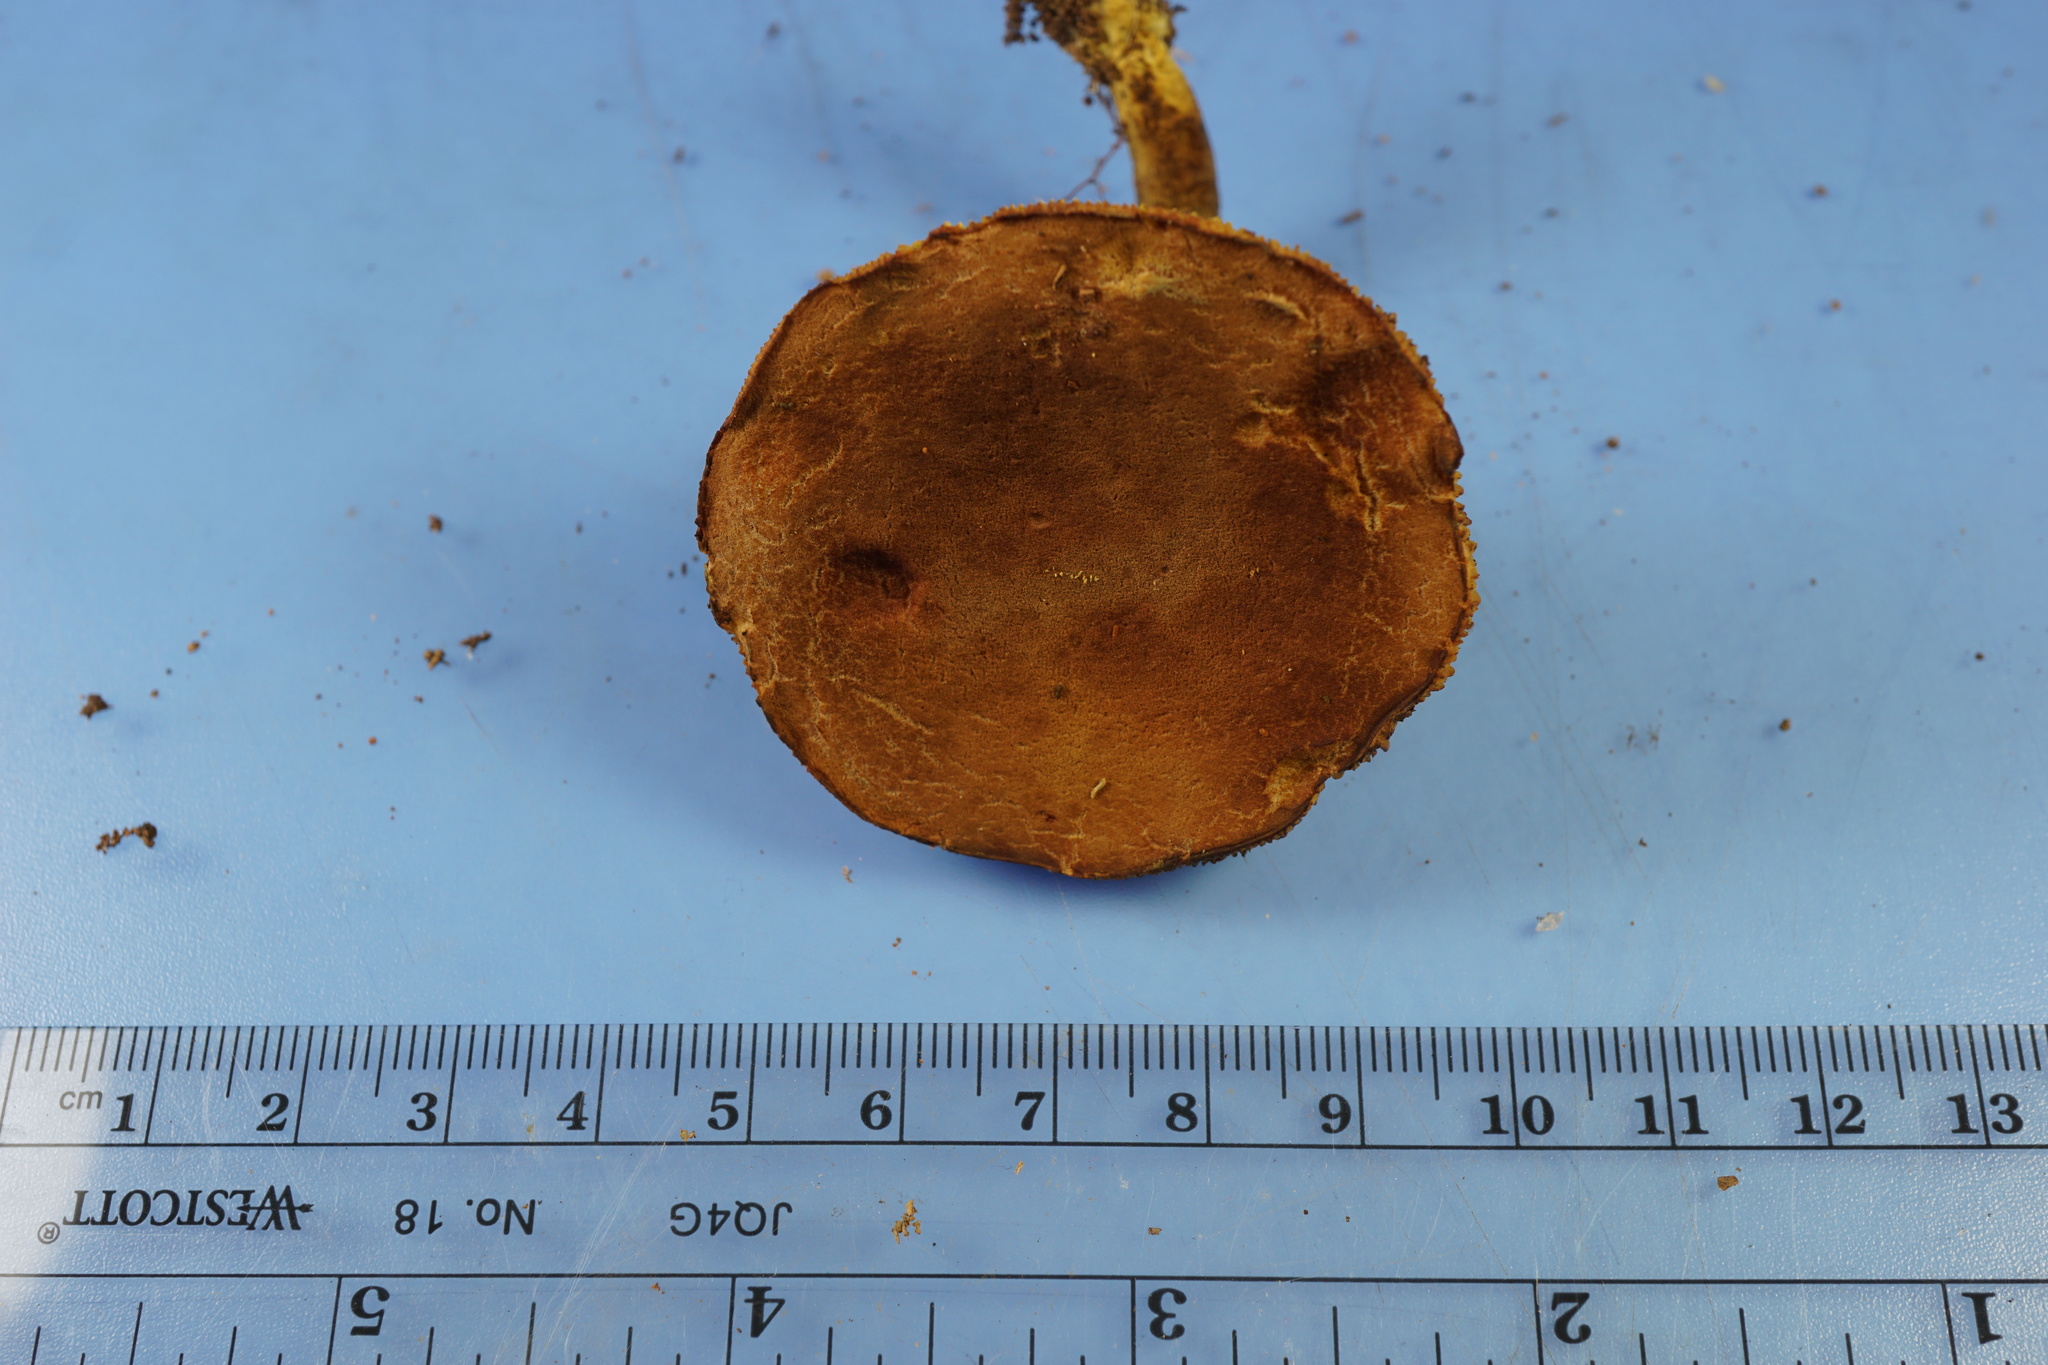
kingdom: Fungi
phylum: Basidiomycota
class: Agaricomycetes
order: Boletales
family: Boletaceae
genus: Phylloporus
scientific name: Phylloporus rhodoxanthus
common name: Golden gilled bolete
